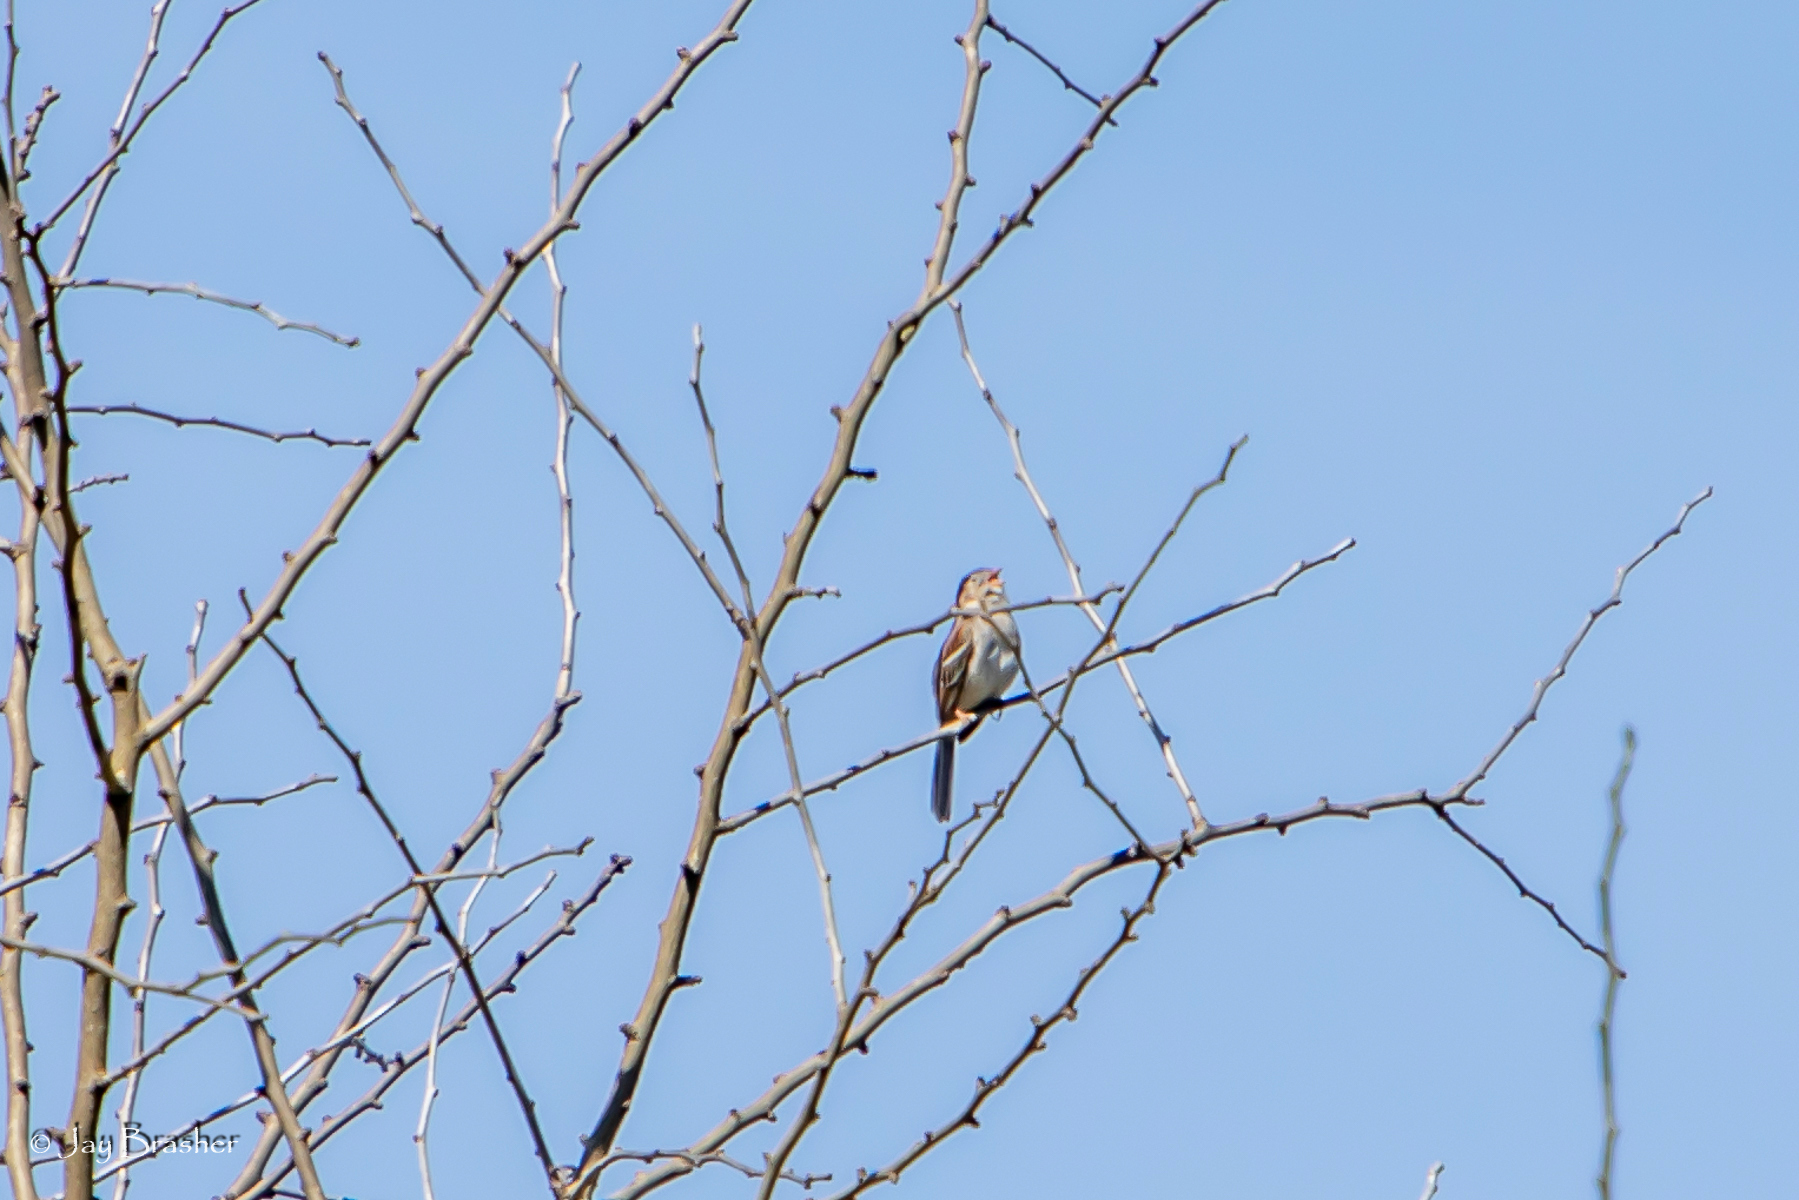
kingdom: Animalia
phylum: Chordata
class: Aves
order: Passeriformes
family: Passerellidae
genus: Spizella
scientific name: Spizella pusilla
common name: Field sparrow
